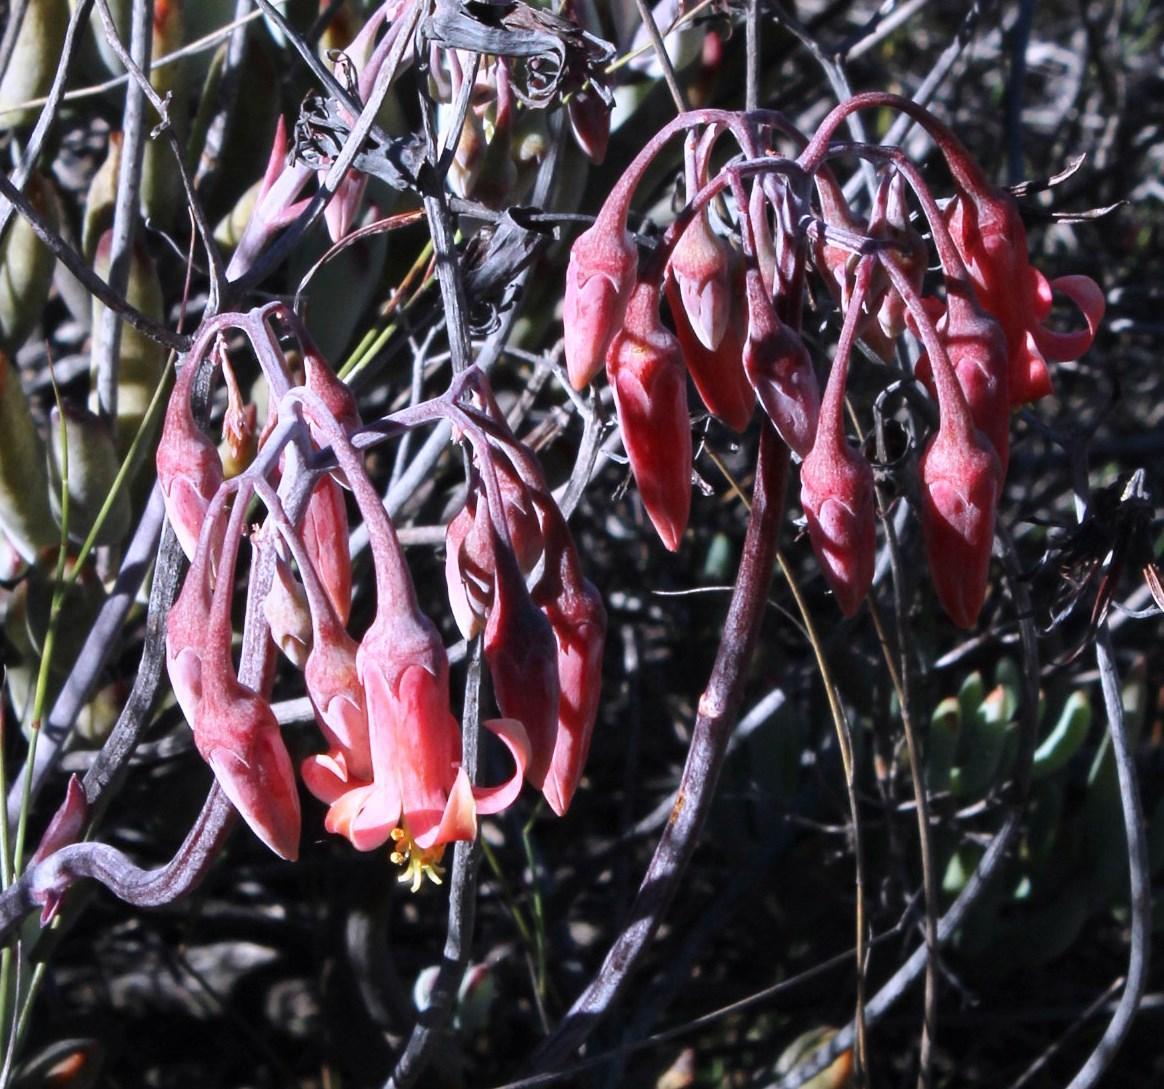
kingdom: Plantae
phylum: Tracheophyta
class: Magnoliopsida
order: Saxifragales
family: Crassulaceae
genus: Cotyledon
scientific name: Cotyledon orbiculata
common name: Pig's ear
